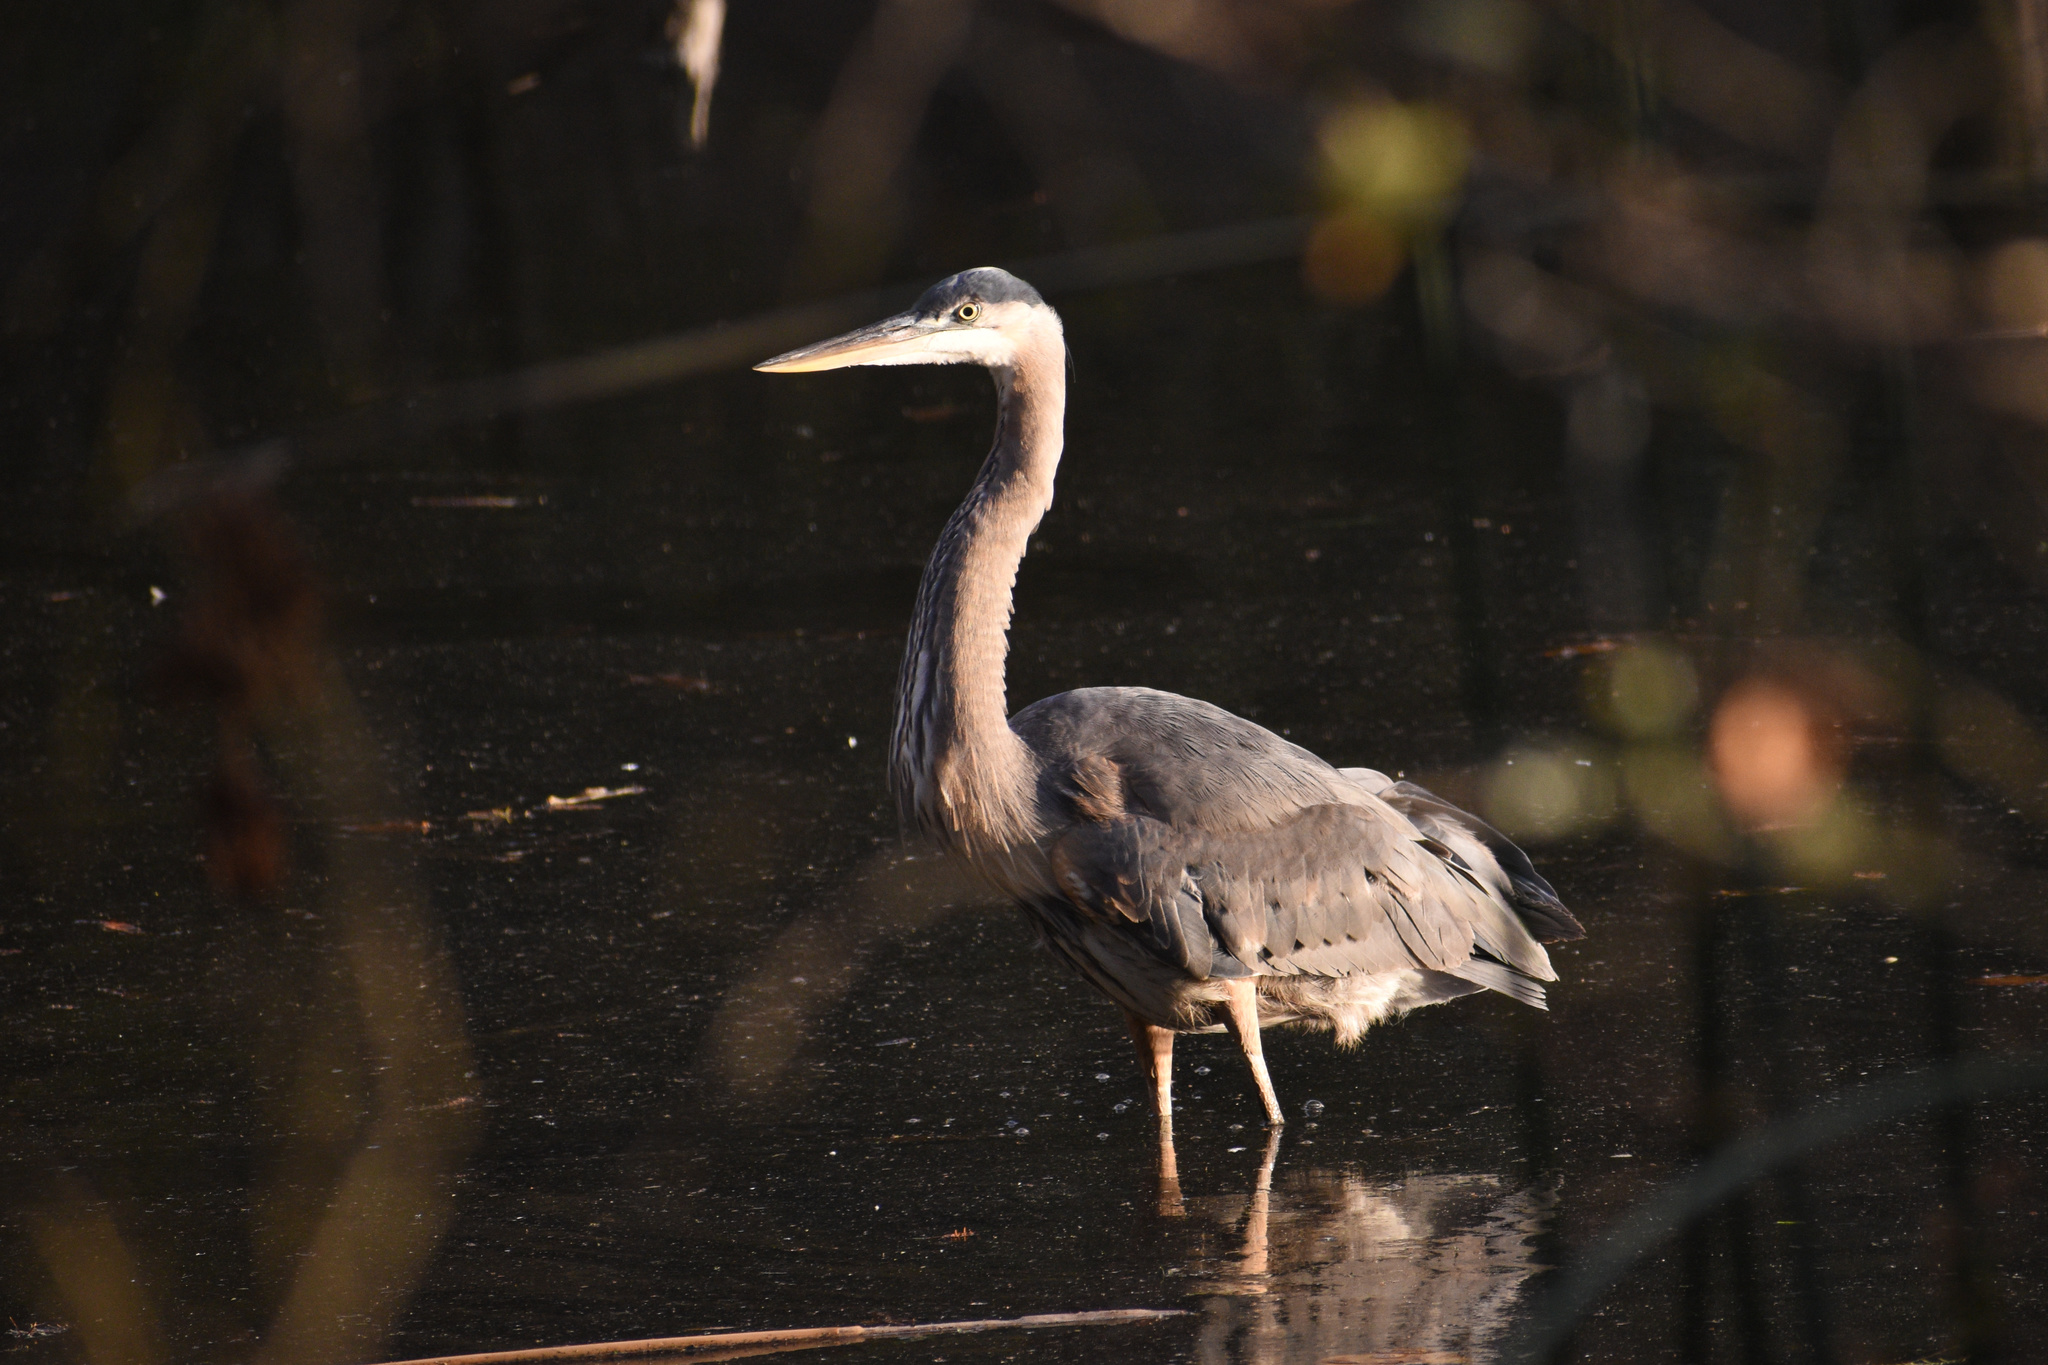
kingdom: Animalia
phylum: Chordata
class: Aves
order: Pelecaniformes
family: Ardeidae
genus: Ardea
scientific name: Ardea herodias
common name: Great blue heron
